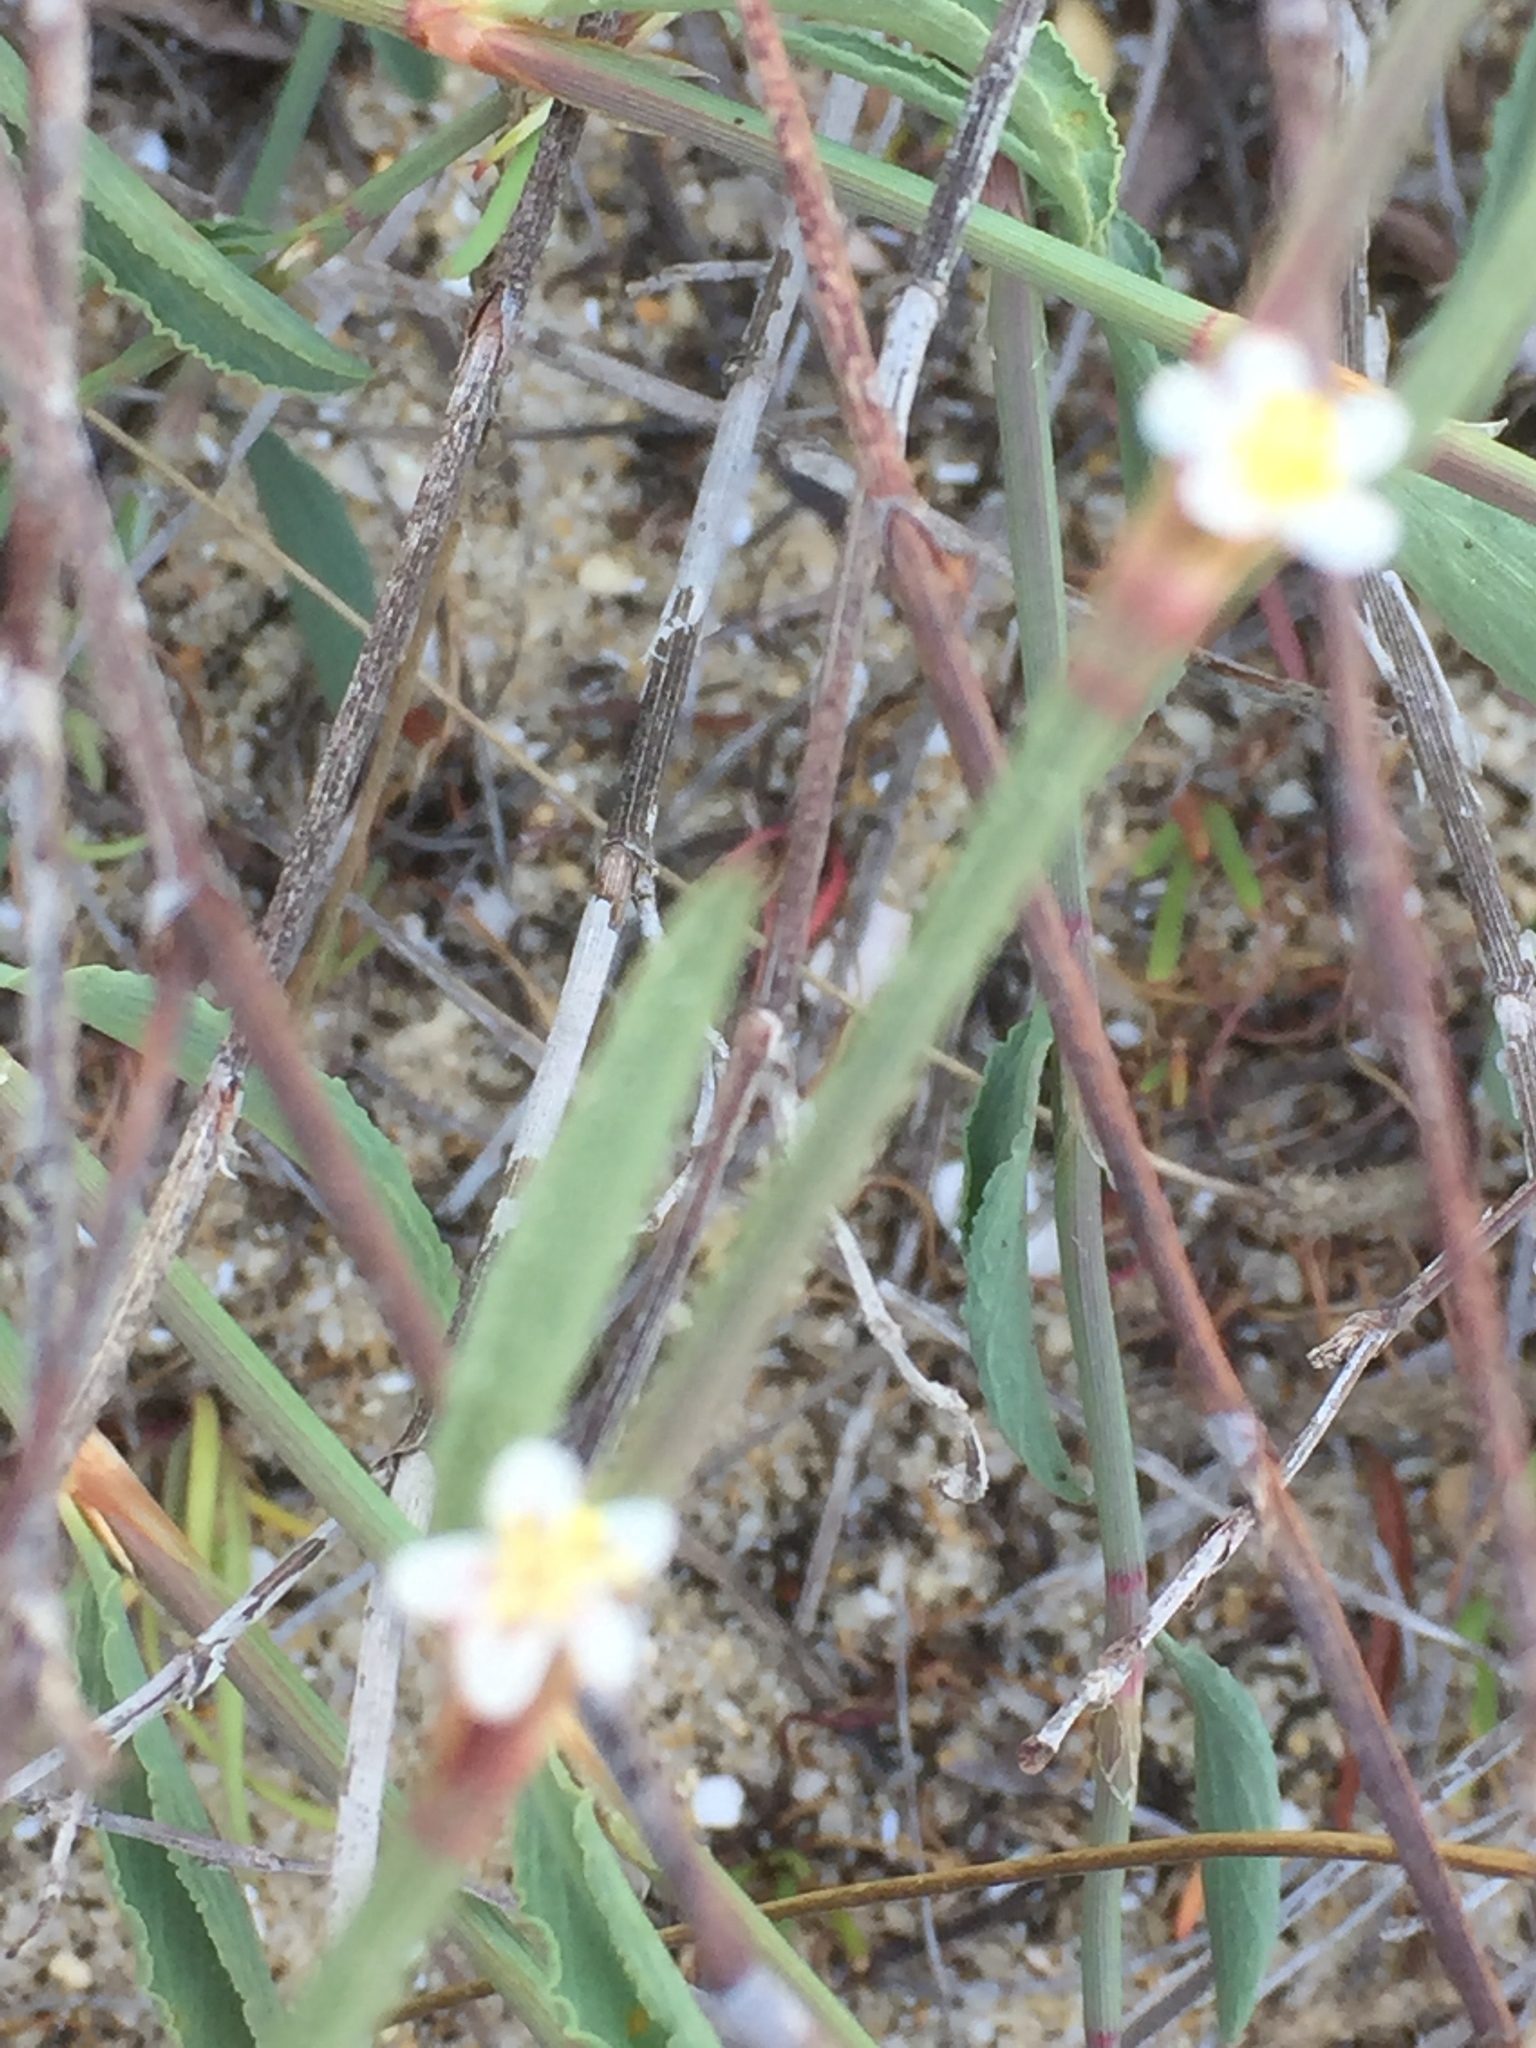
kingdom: Plantae
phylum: Tracheophyta
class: Magnoliopsida
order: Caryophyllales
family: Polygonaceae
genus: Polygonum
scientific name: Polygonum equisetiforme
